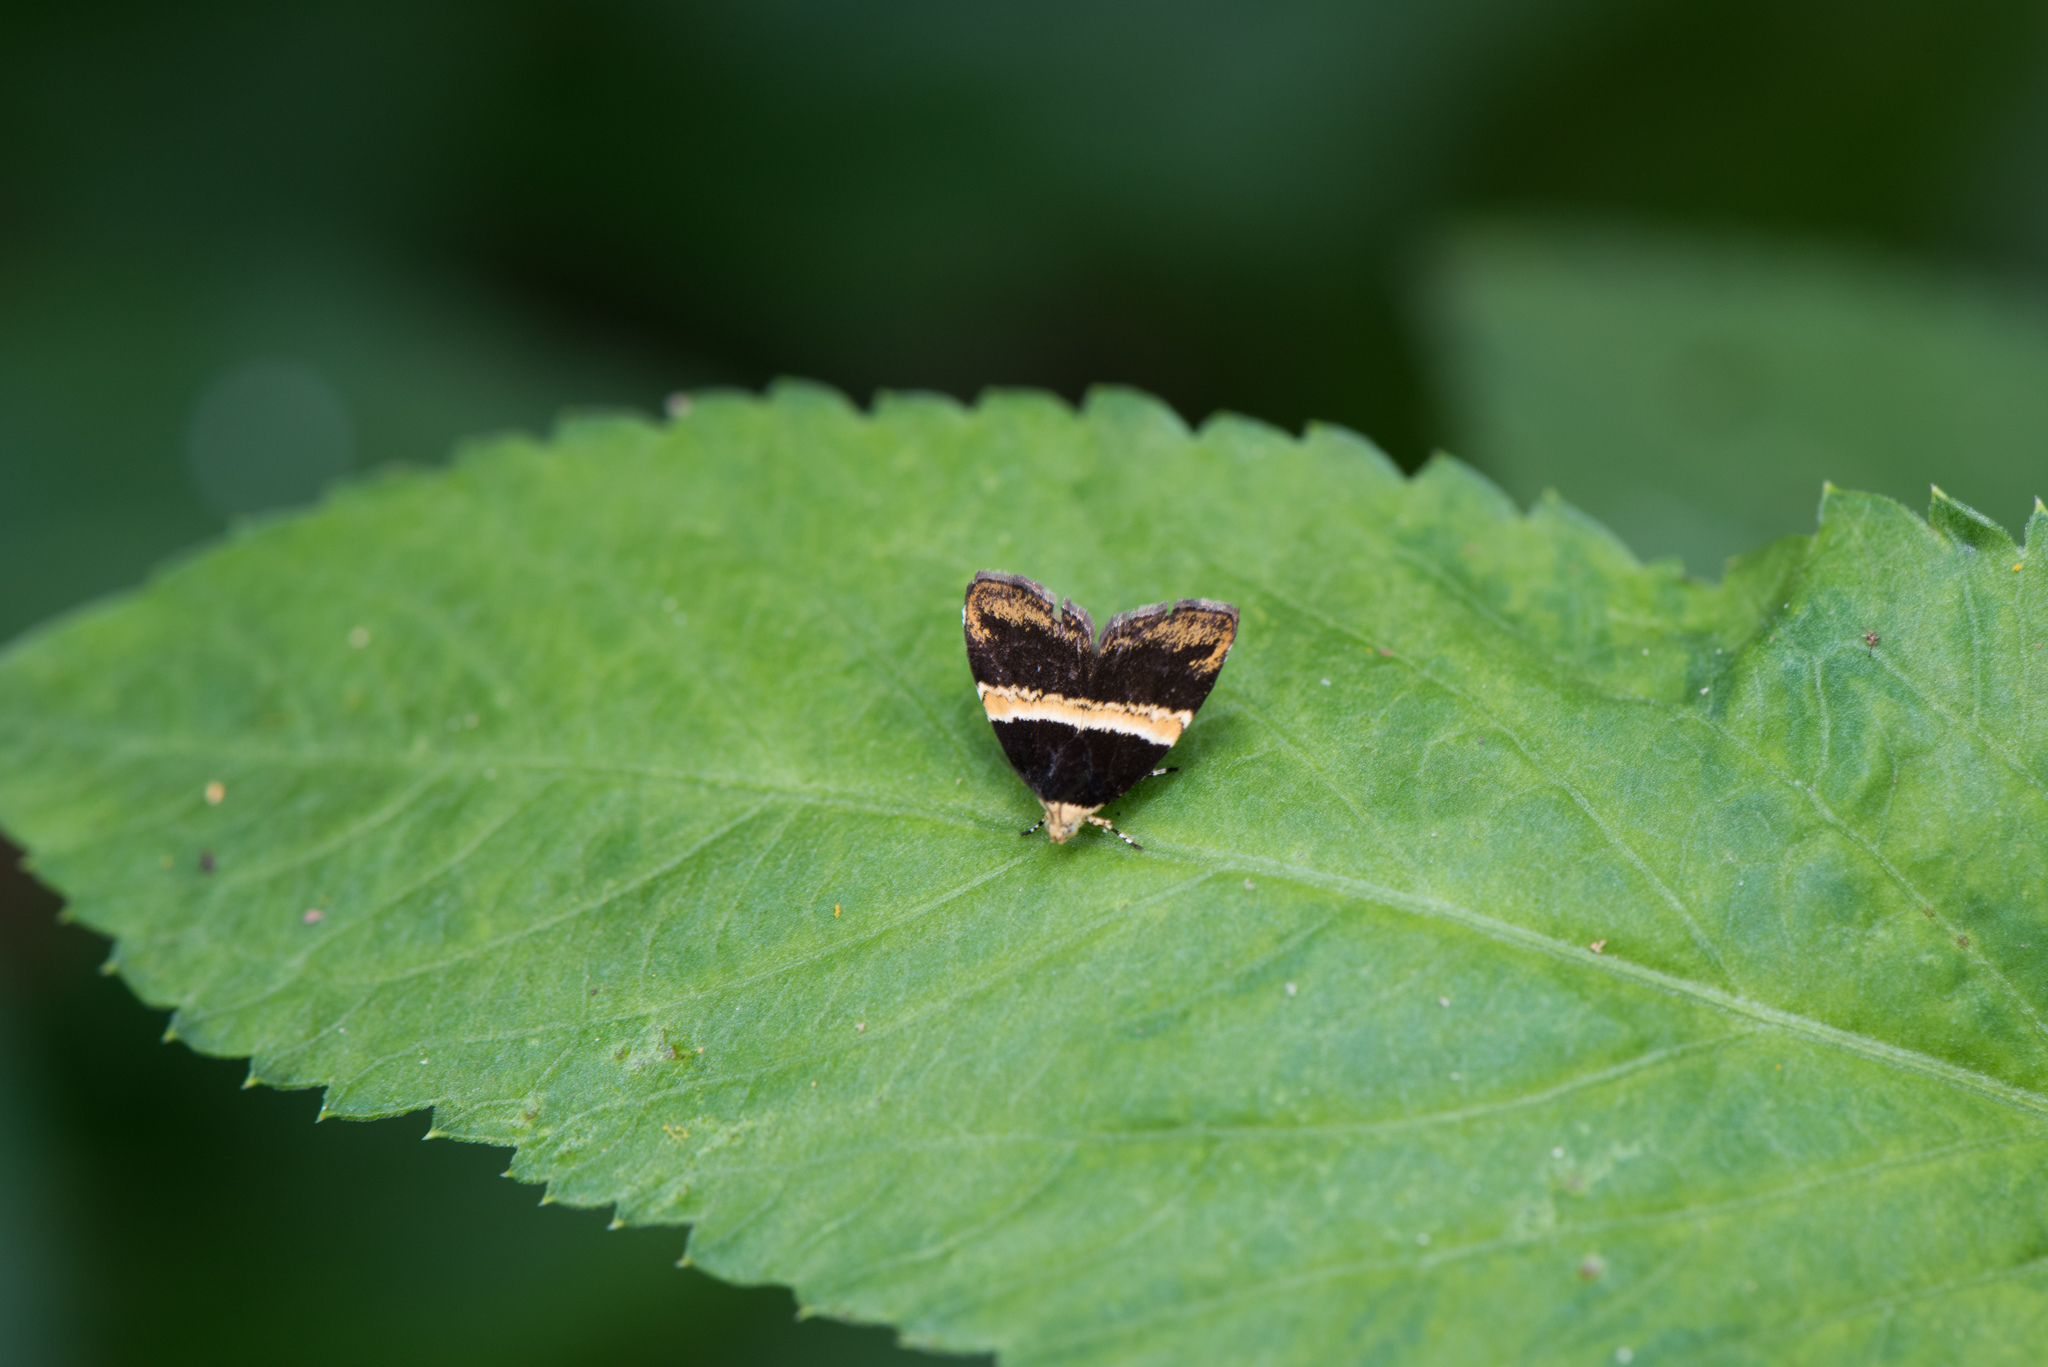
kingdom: Animalia
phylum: Arthropoda
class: Insecta
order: Lepidoptera
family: Choreutidae
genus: Choreutis
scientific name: Choreutis basalis
